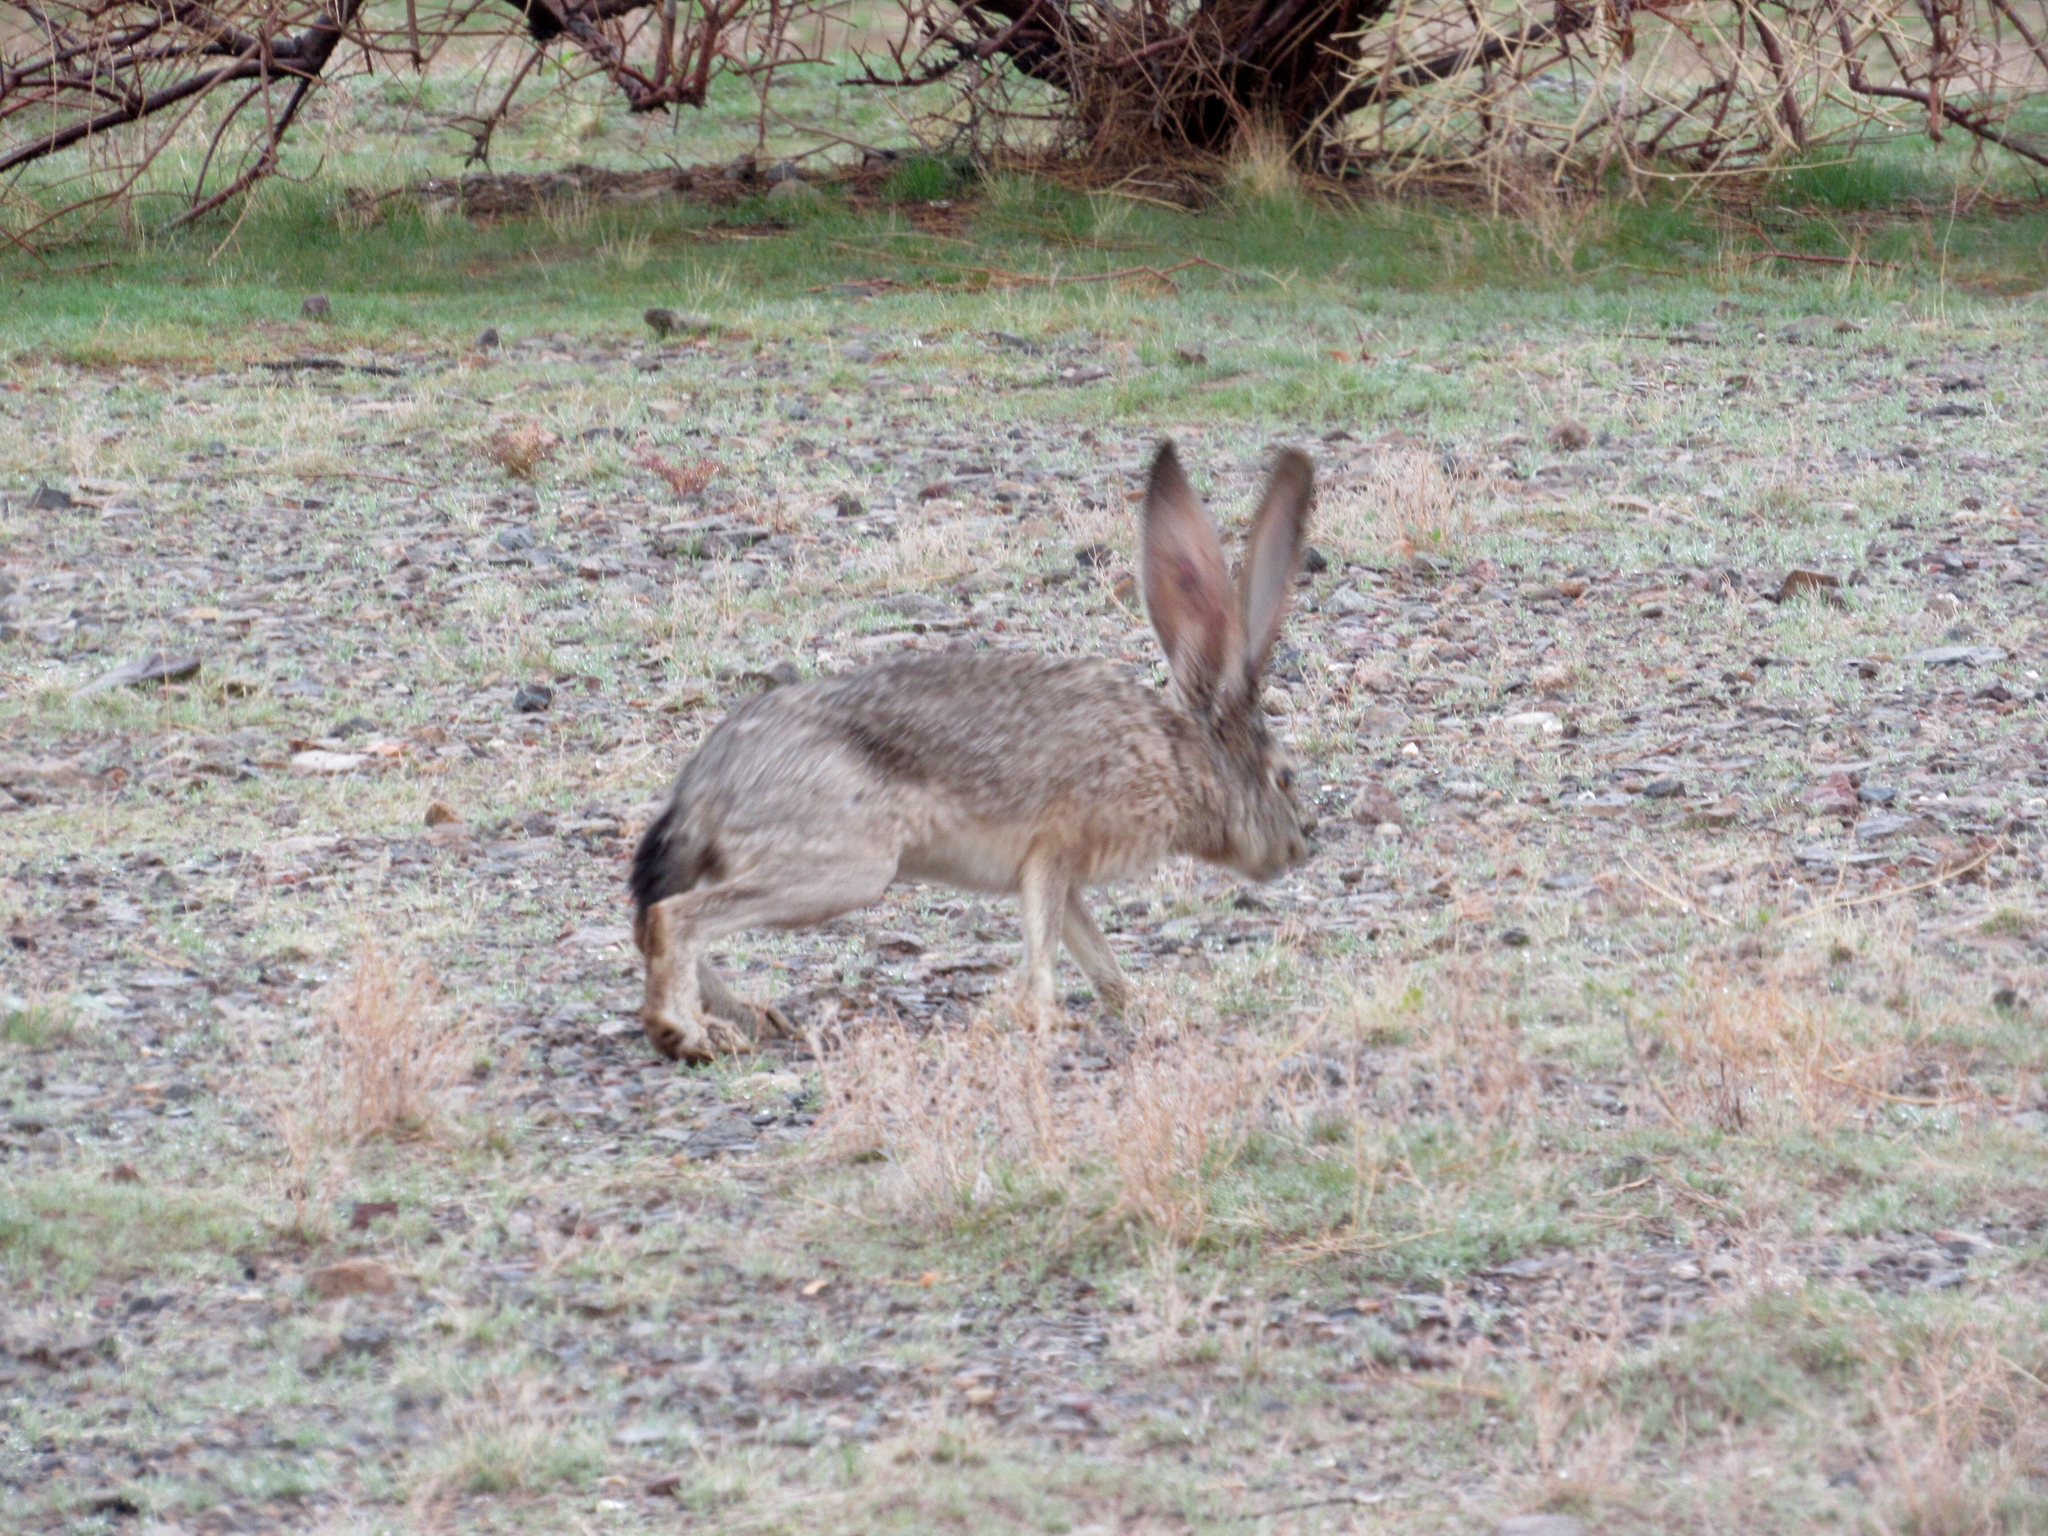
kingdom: Animalia
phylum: Chordata
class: Mammalia
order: Lagomorpha
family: Leporidae
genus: Lepus
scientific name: Lepus californicus
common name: Black-tailed jackrabbit
